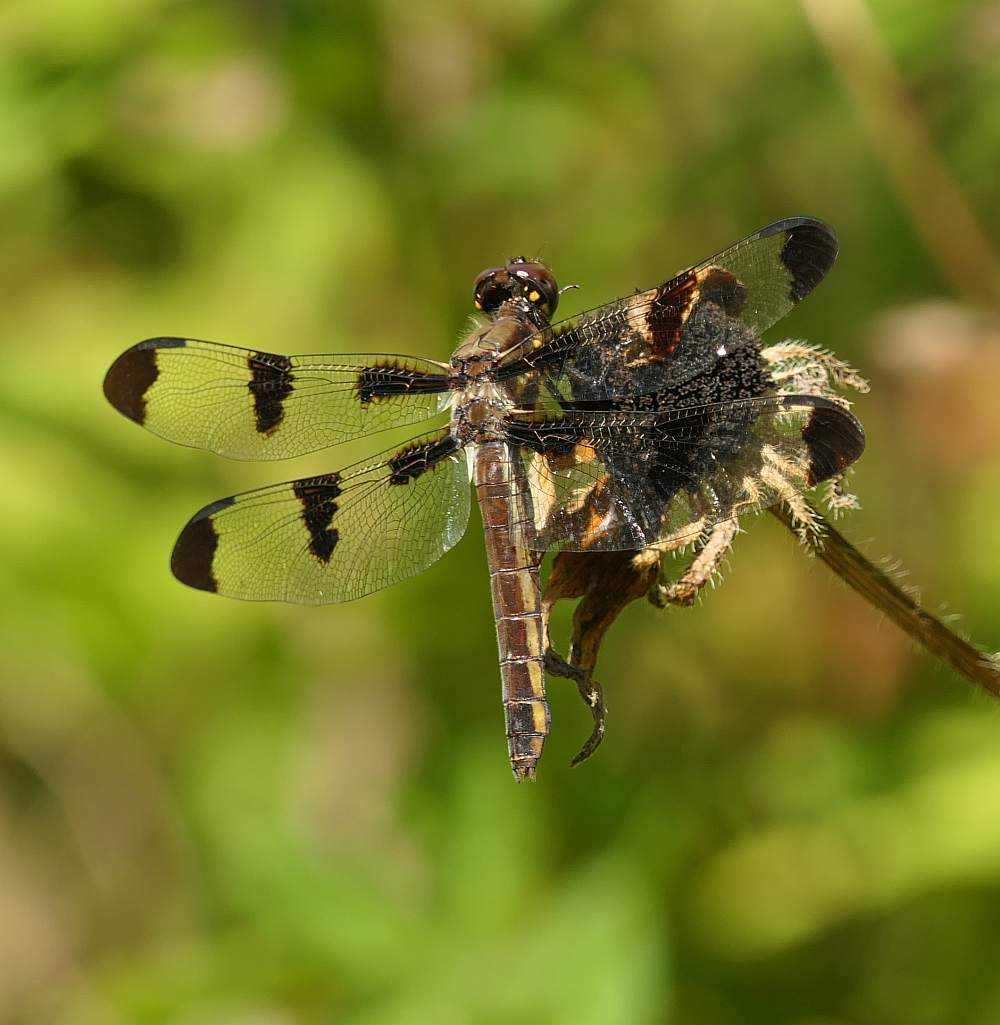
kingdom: Animalia
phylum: Arthropoda
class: Insecta
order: Odonata
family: Libellulidae
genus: Libellula
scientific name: Libellula pulchella
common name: Twelve-spotted skimmer
